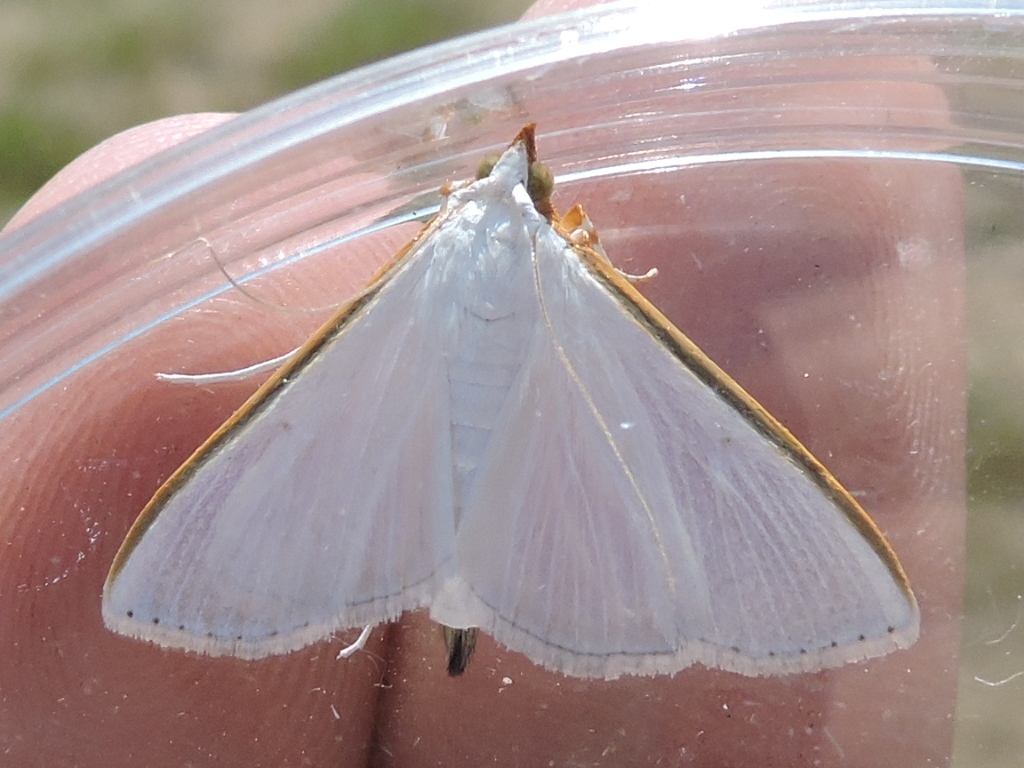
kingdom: Animalia
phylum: Arthropoda
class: Insecta
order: Lepidoptera
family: Crambidae
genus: Diaphania
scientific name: Diaphania costata
